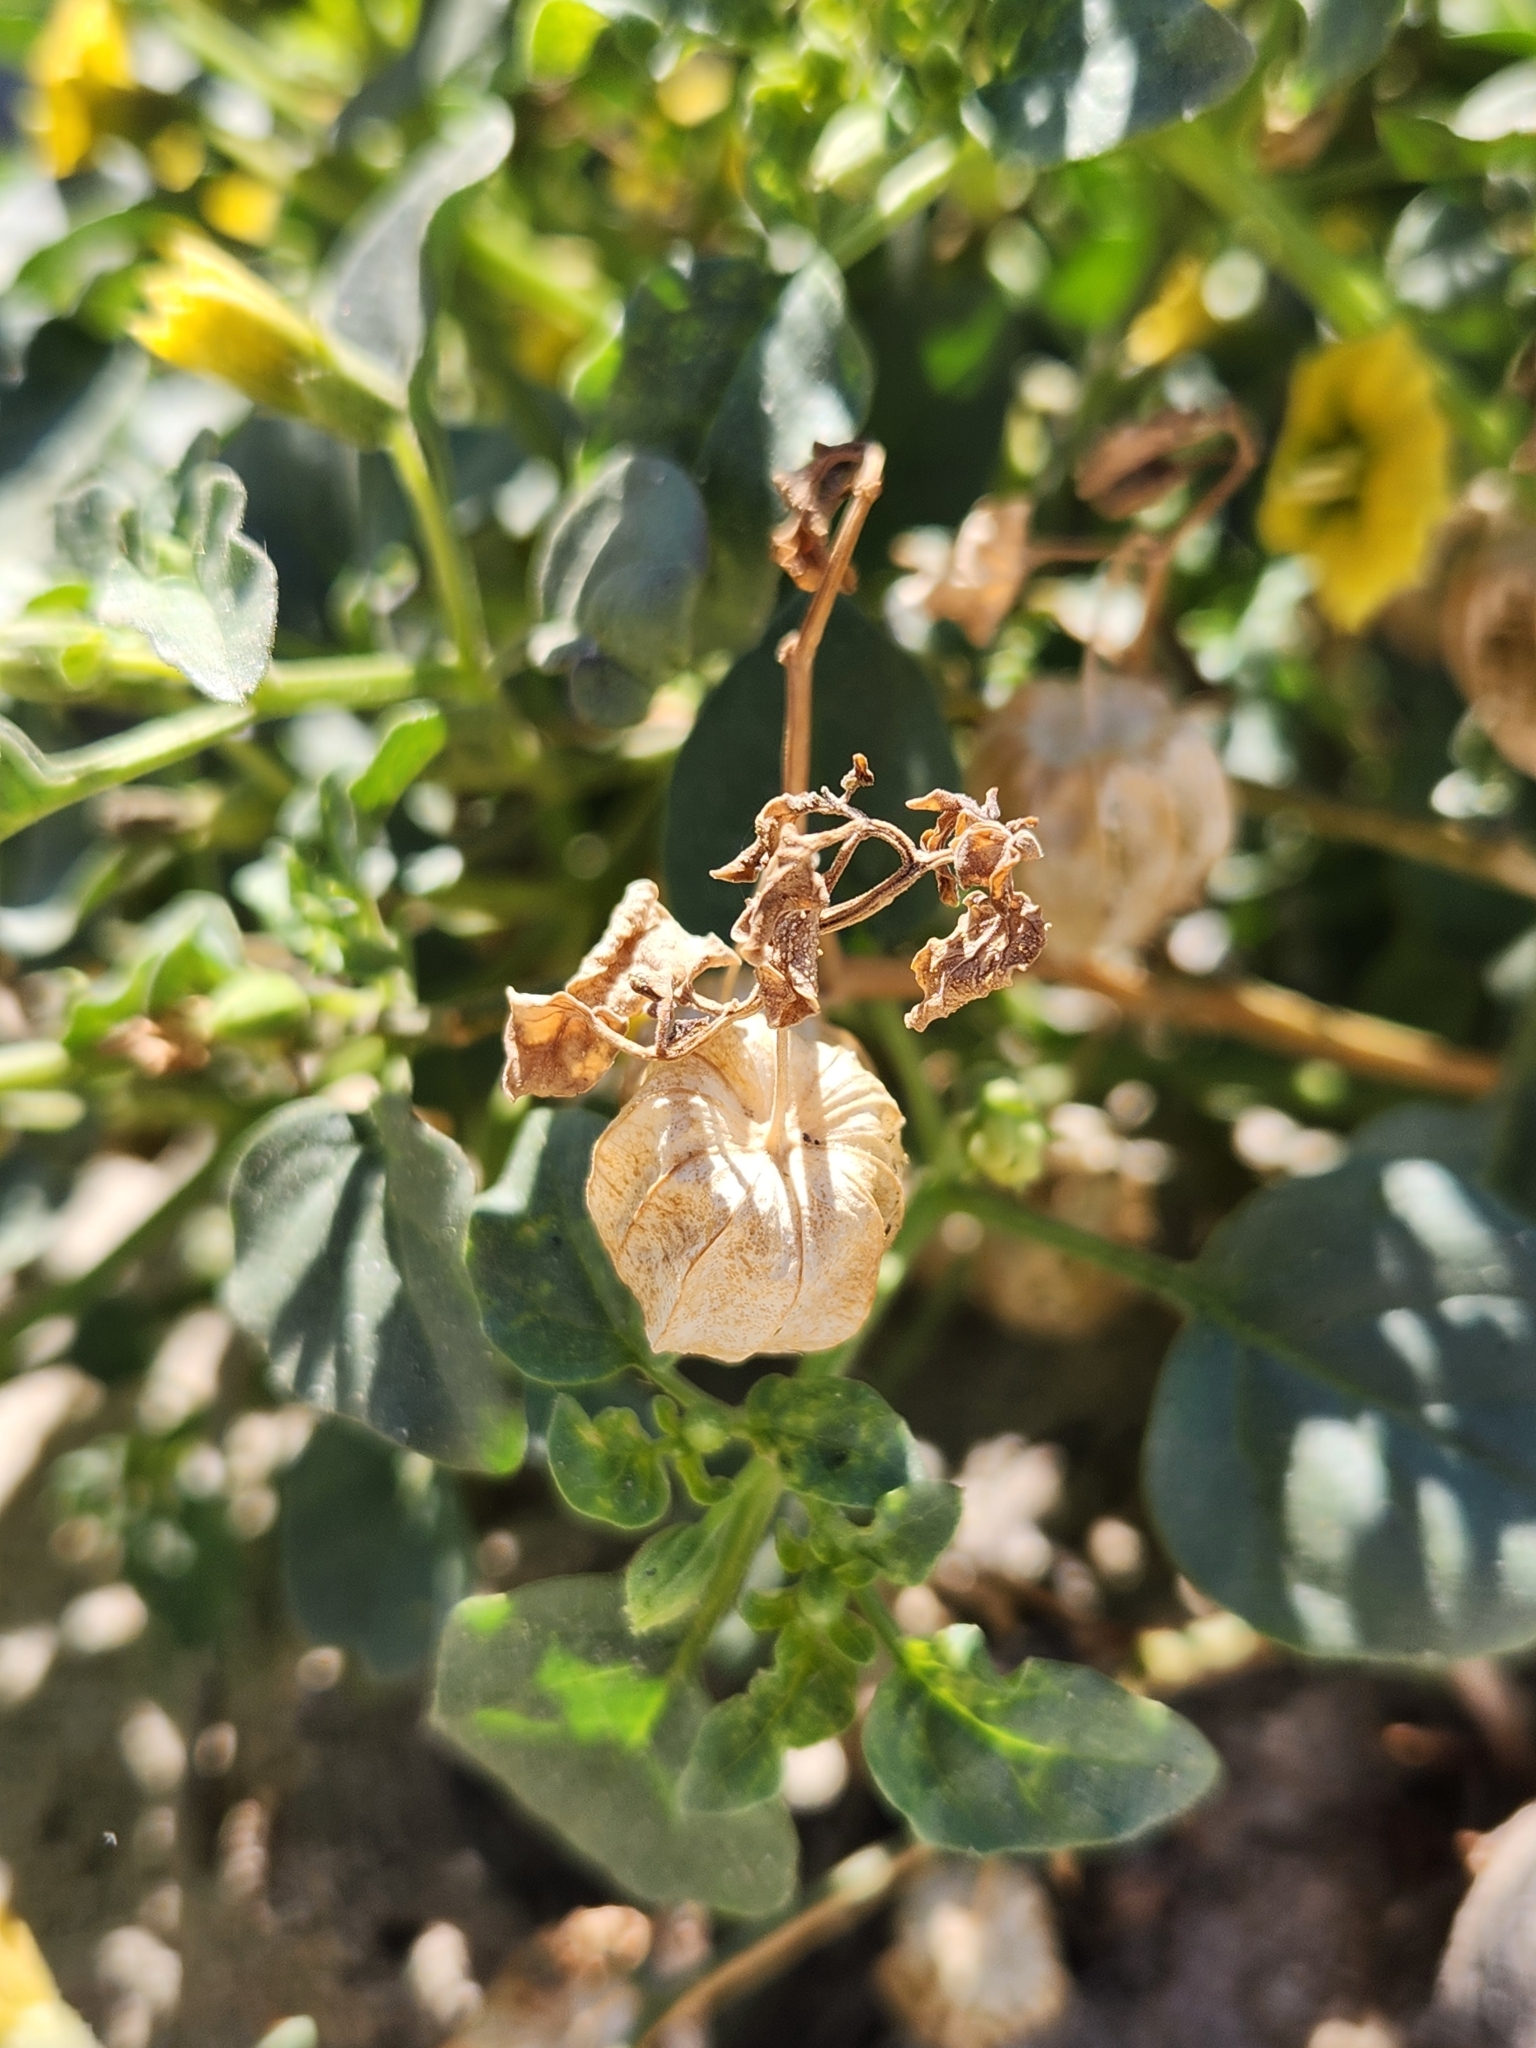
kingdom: Plantae
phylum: Tracheophyta
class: Magnoliopsida
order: Solanales
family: Solanaceae
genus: Physalis
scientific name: Physalis crassifolia
